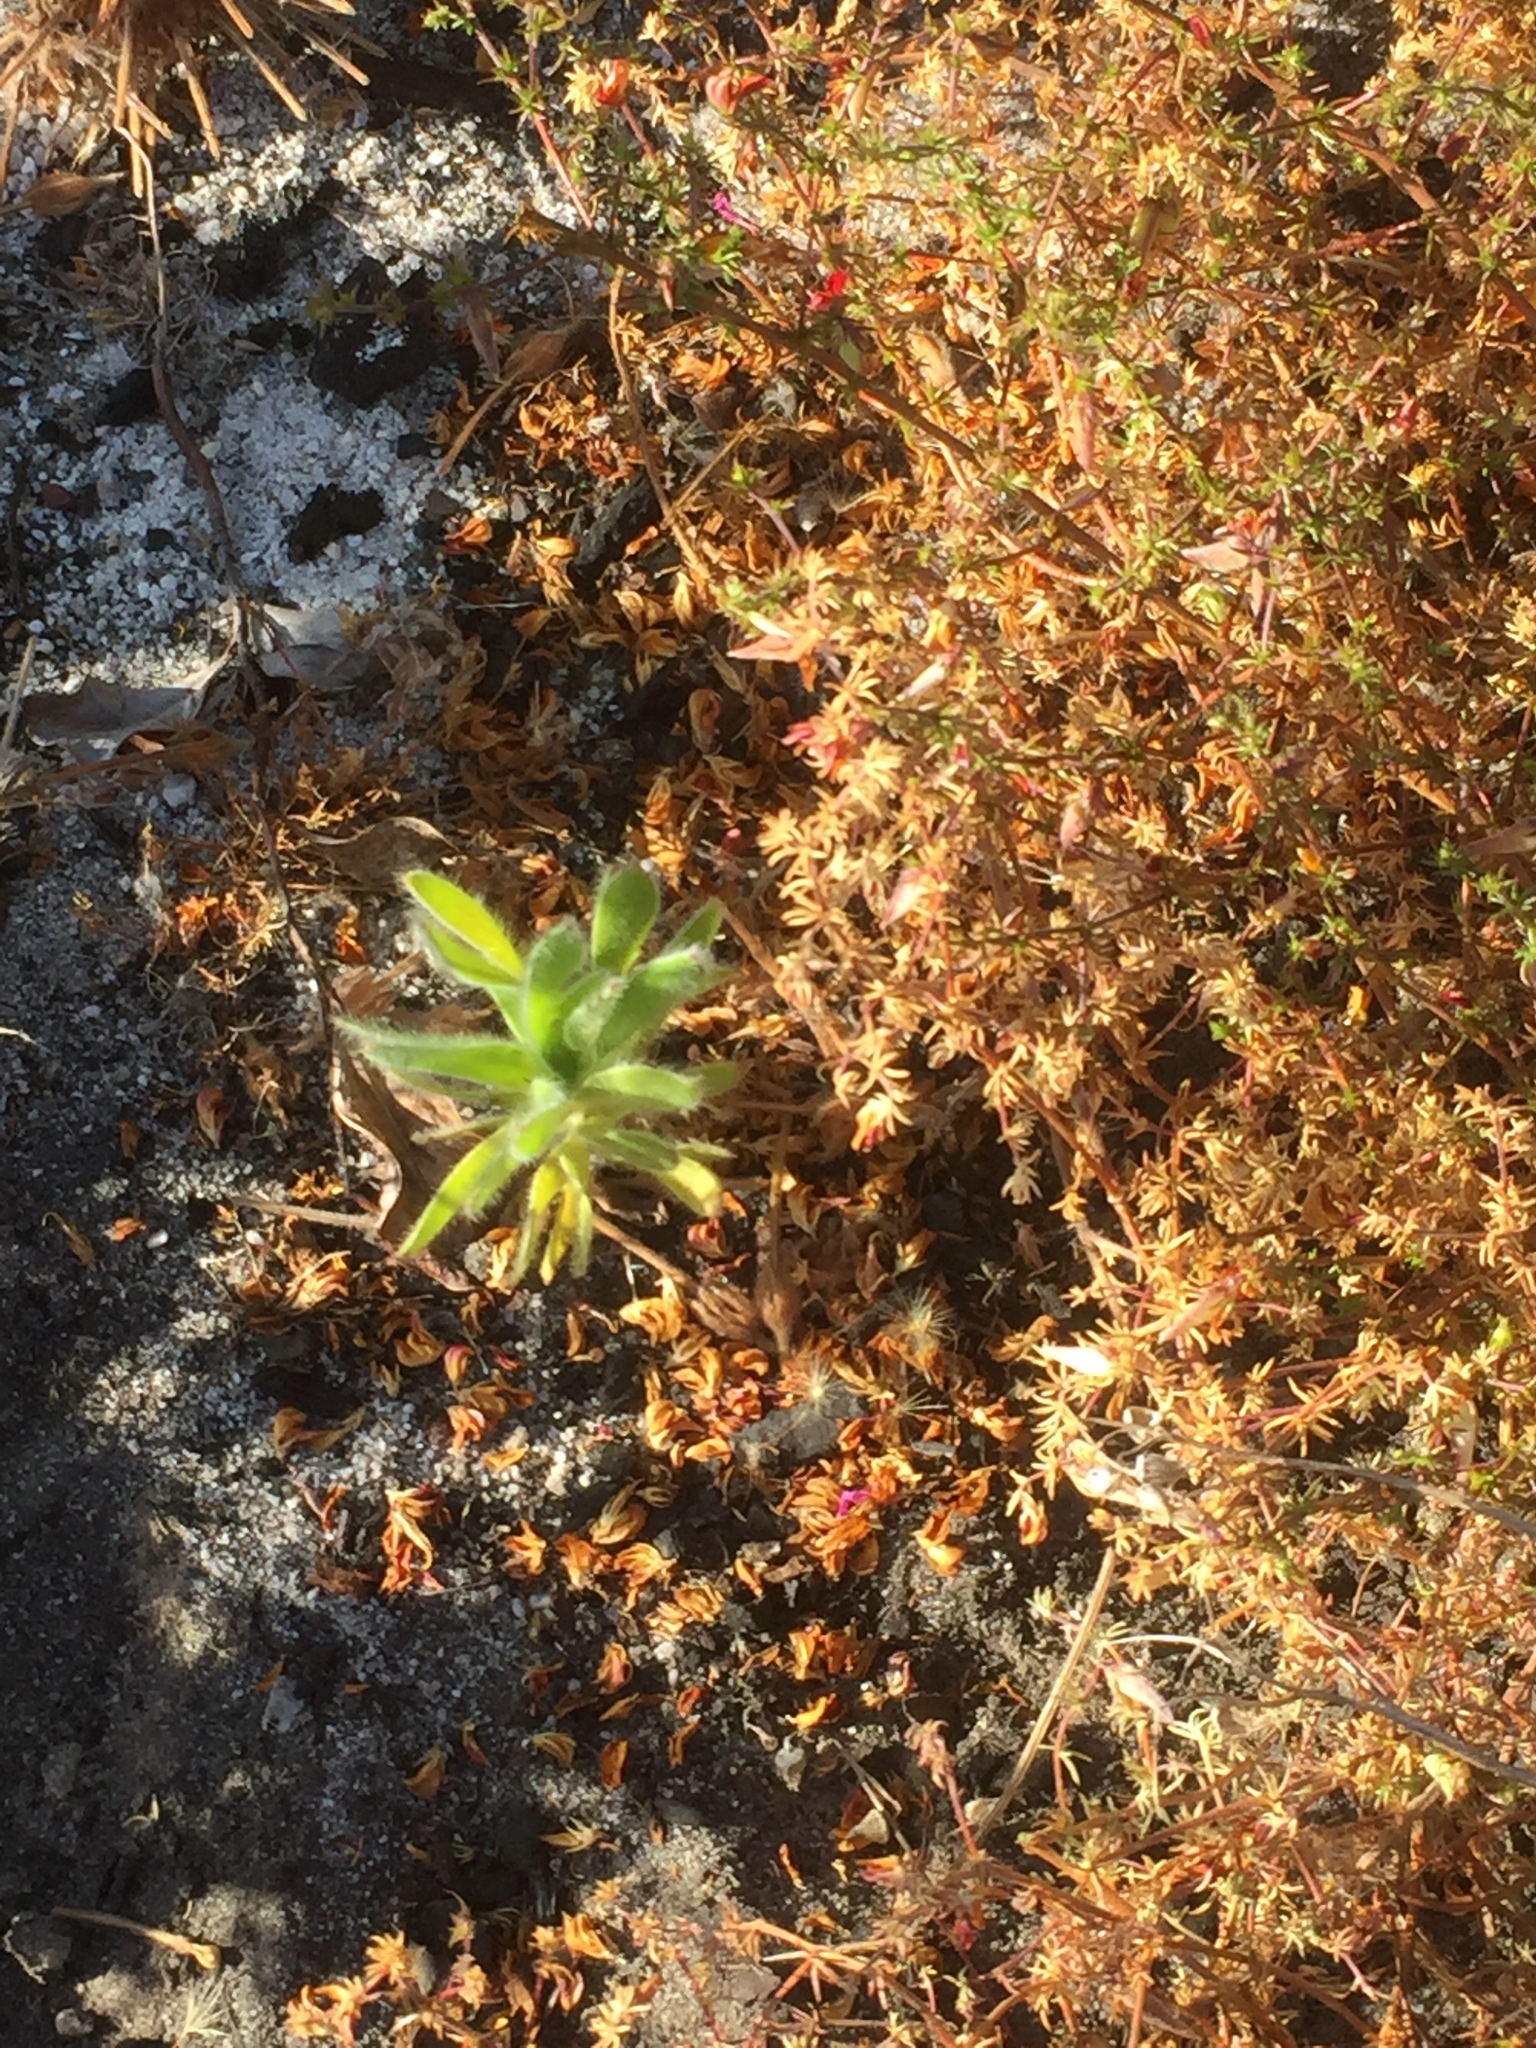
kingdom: Plantae
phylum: Tracheophyta
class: Magnoliopsida
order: Proteales
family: Proteaceae
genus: Leucospermum
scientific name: Leucospermum conocarpodendron
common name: Tree pincushion
